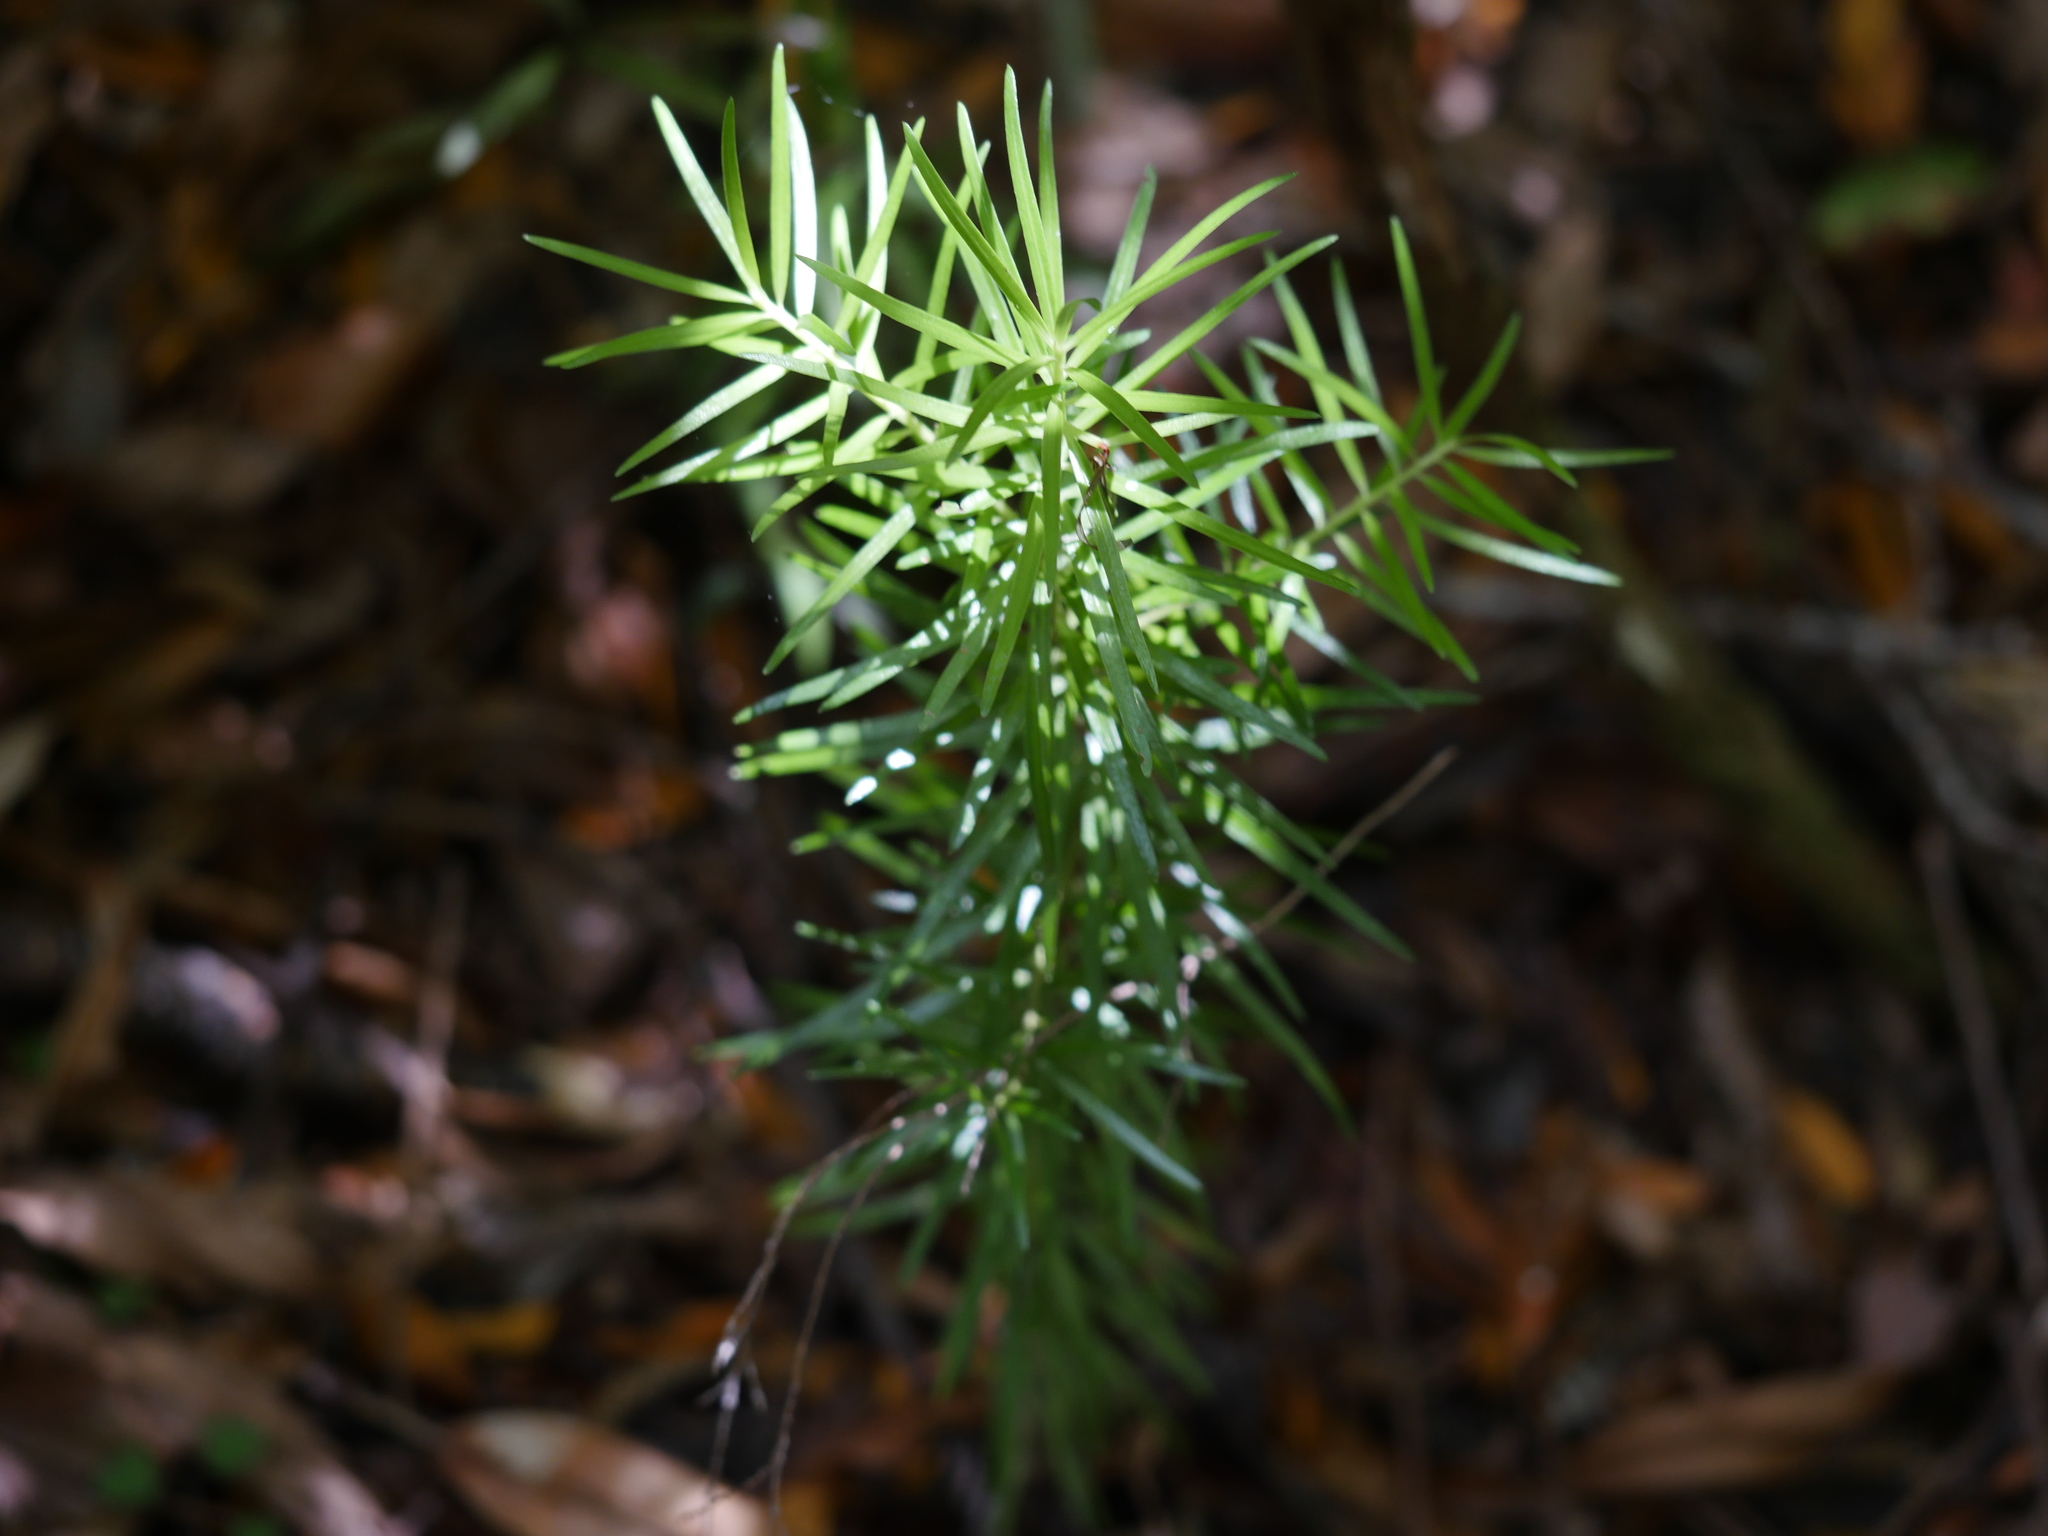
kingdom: Plantae
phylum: Tracheophyta
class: Pinopsida
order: Pinales
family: Podocarpaceae
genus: Halocarpus
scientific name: Halocarpus kirkii
